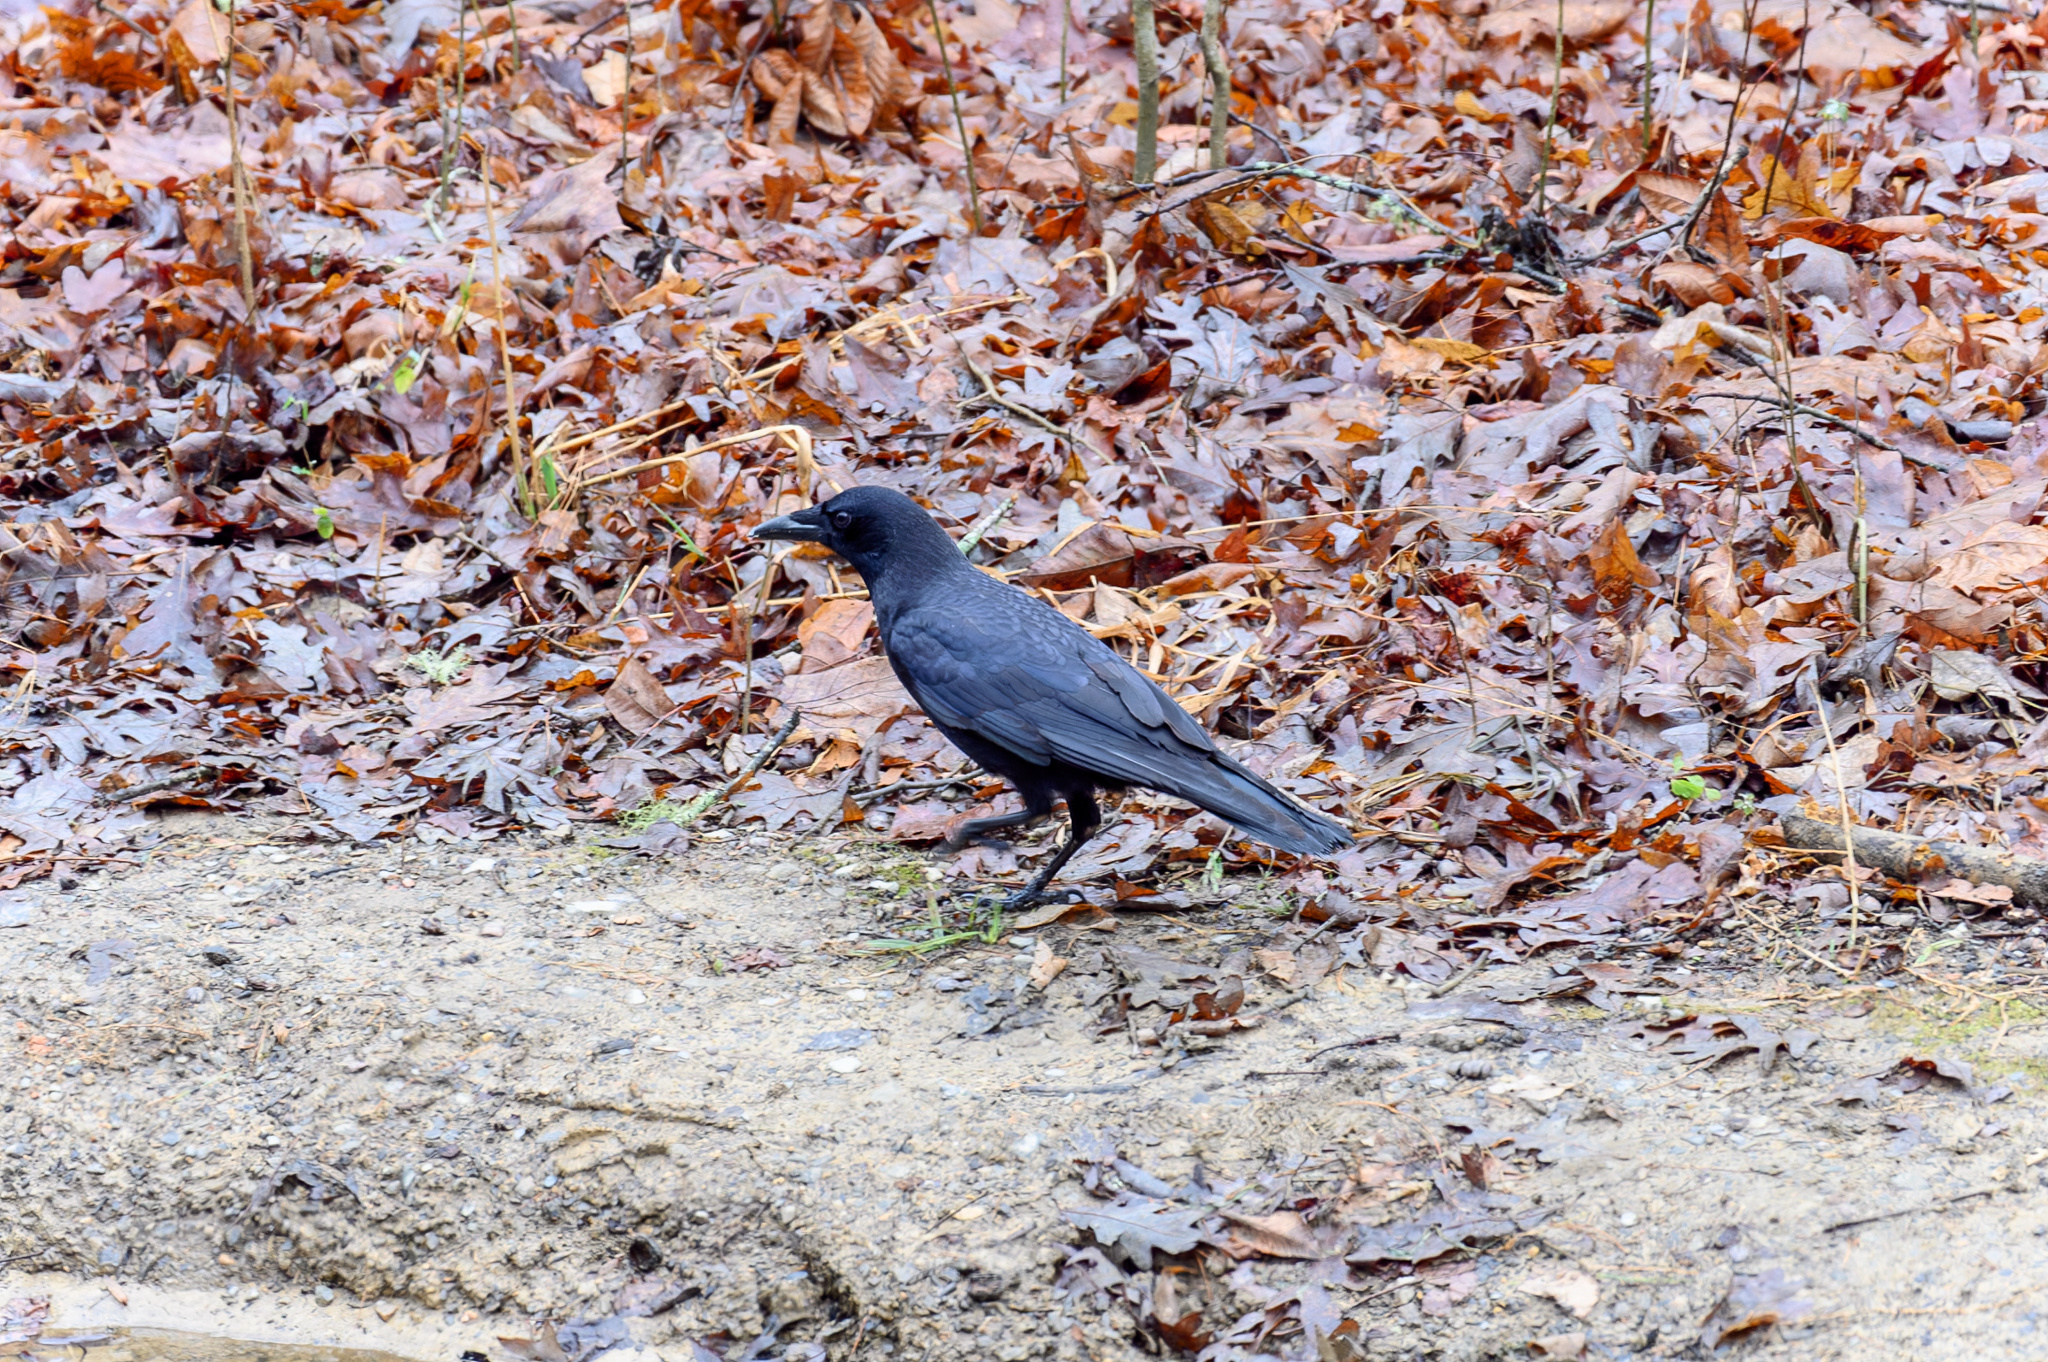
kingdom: Animalia
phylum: Chordata
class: Aves
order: Passeriformes
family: Corvidae
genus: Corvus
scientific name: Corvus brachyrhynchos
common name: American crow
